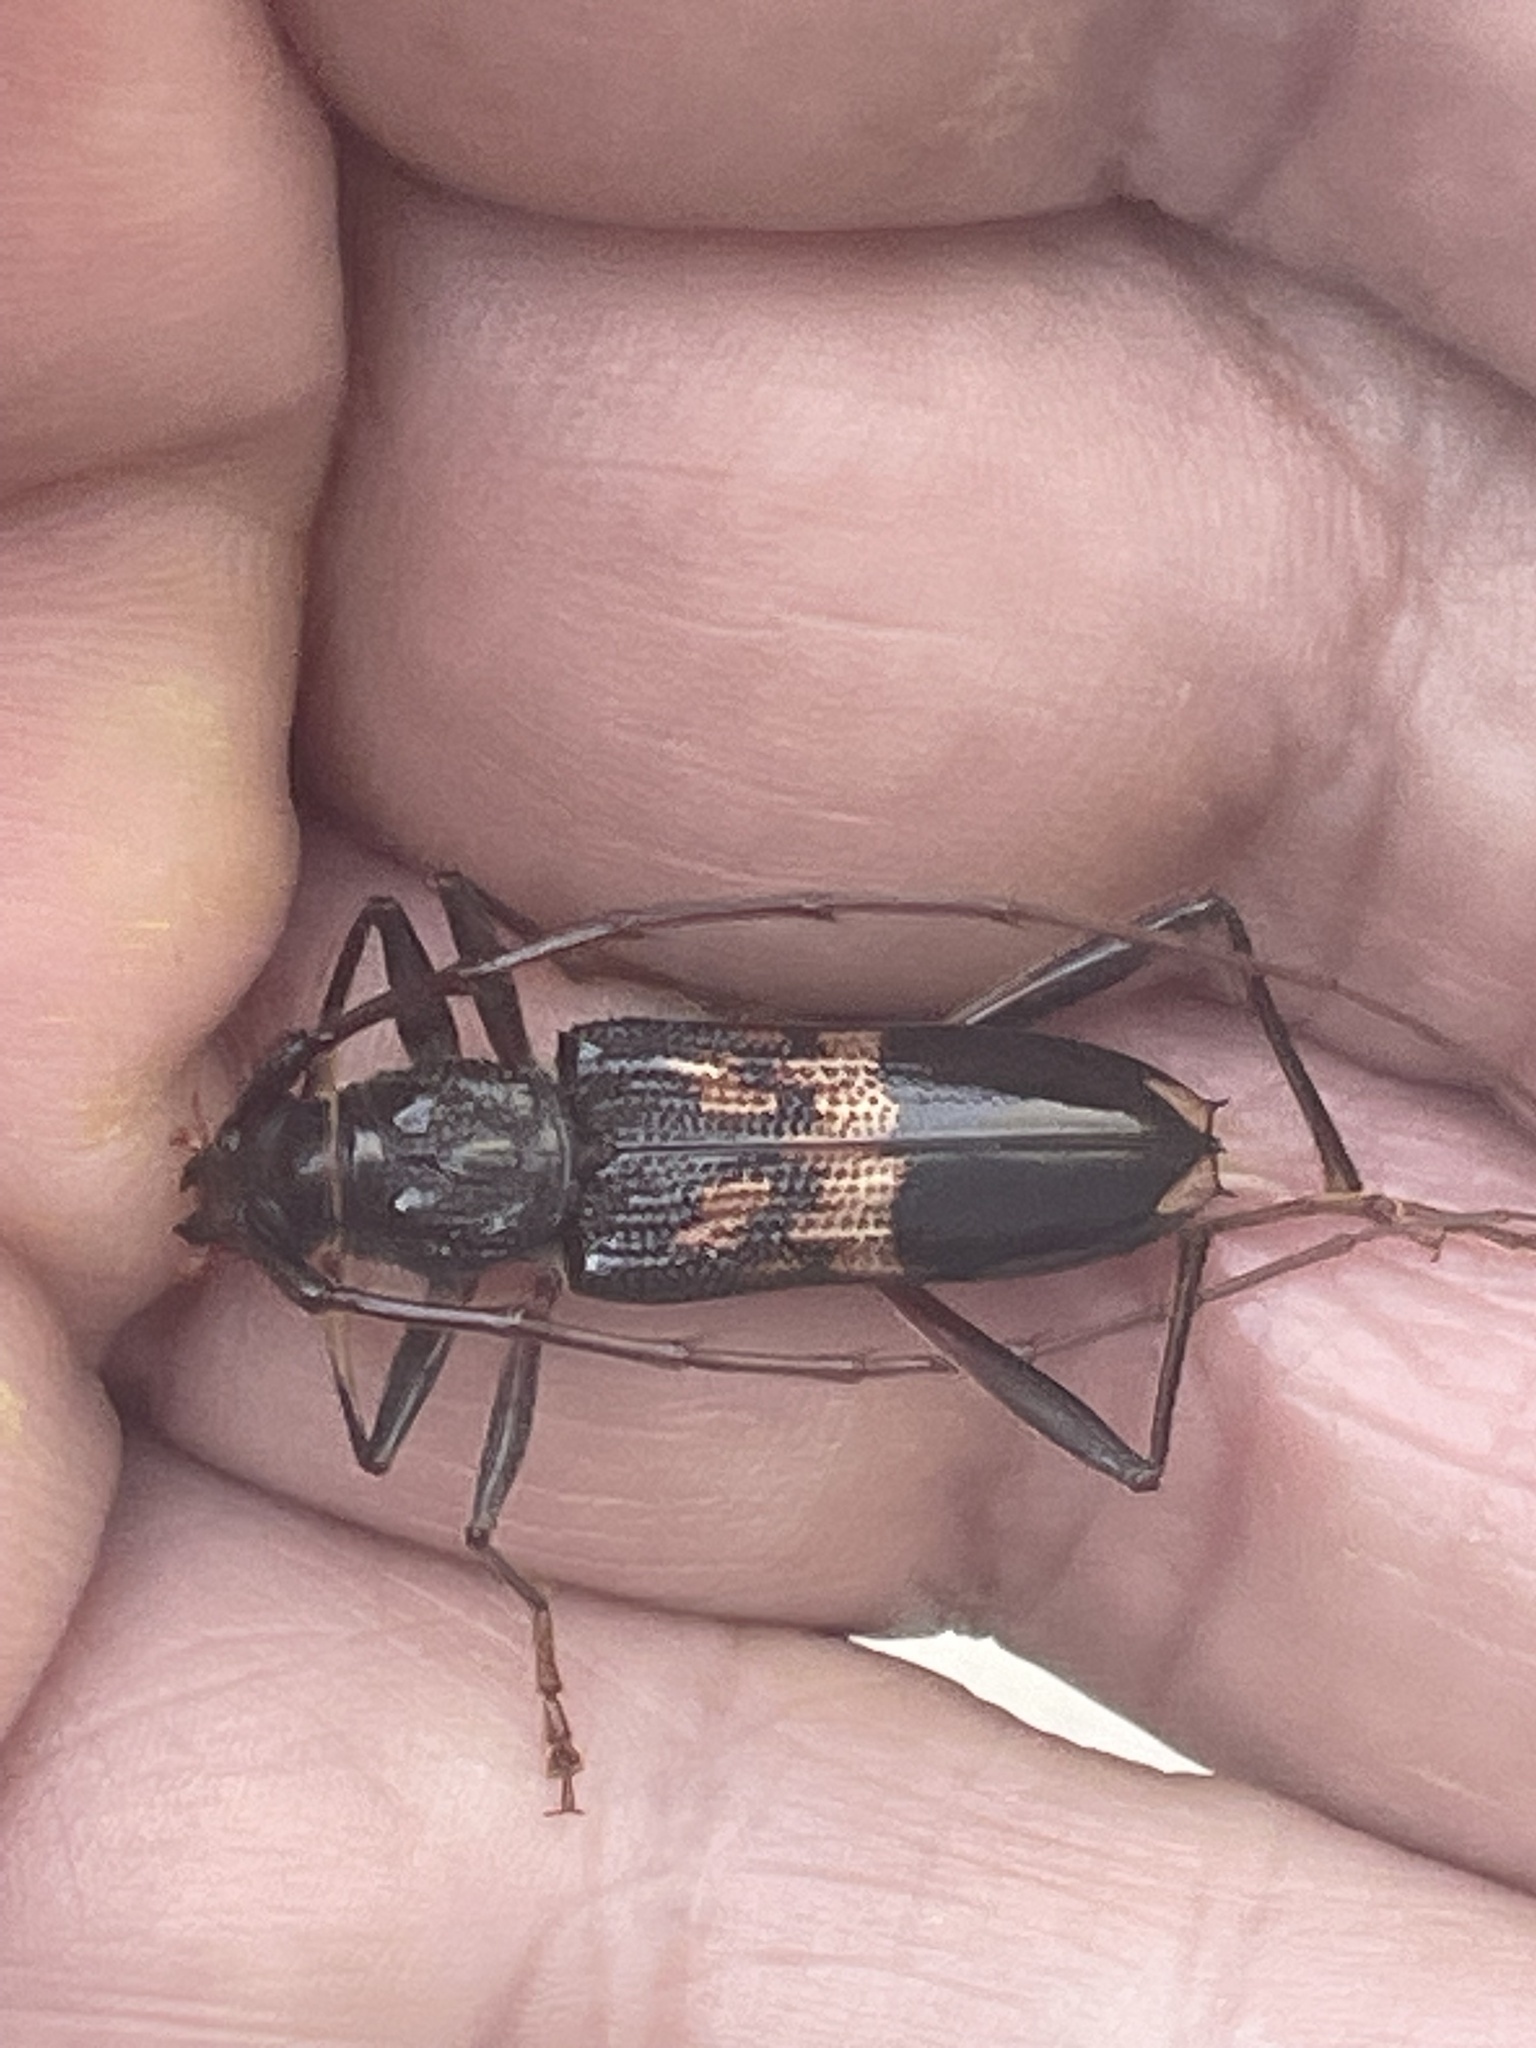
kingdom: Animalia
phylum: Arthropoda
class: Insecta
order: Coleoptera
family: Cerambycidae
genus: Phoracantha
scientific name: Phoracantha semipunctata
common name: Eucalyptus longhorn borer
